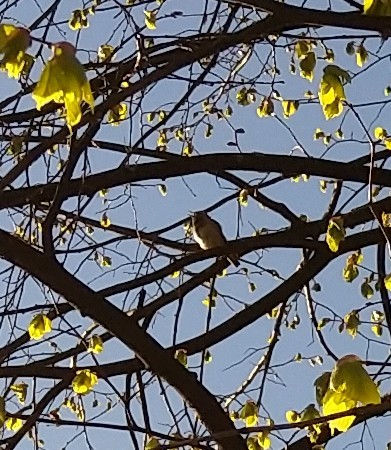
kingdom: Animalia
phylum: Chordata
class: Aves
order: Passeriformes
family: Muscicapidae
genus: Luscinia
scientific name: Luscinia svecica
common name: Bluethroat
